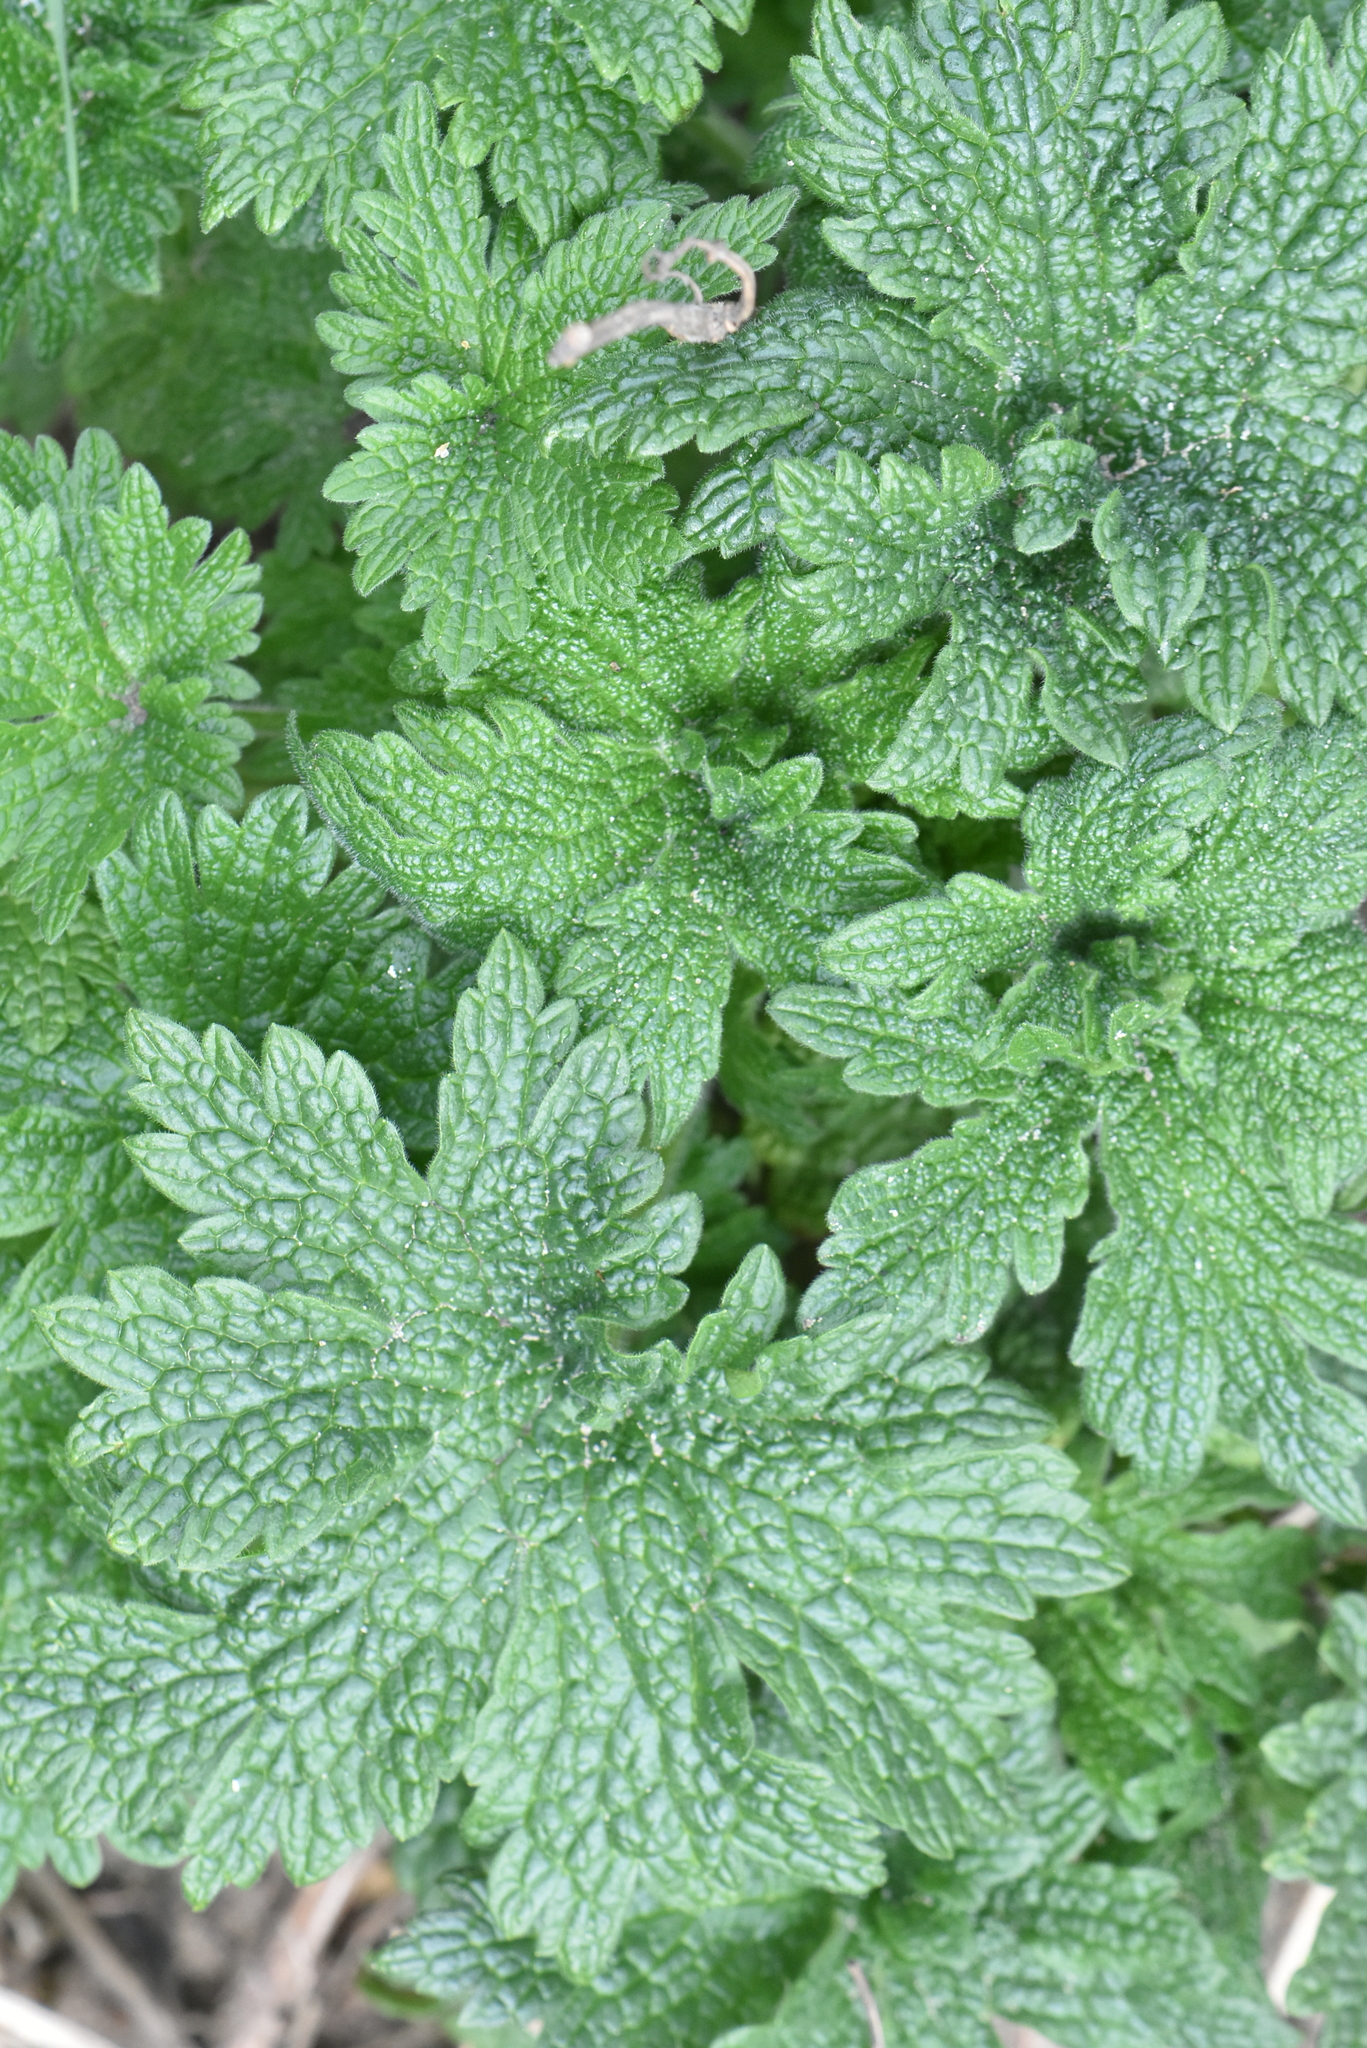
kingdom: Plantae
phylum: Tracheophyta
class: Magnoliopsida
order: Lamiales
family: Lamiaceae
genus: Leonurus
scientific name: Leonurus quinquelobatus
